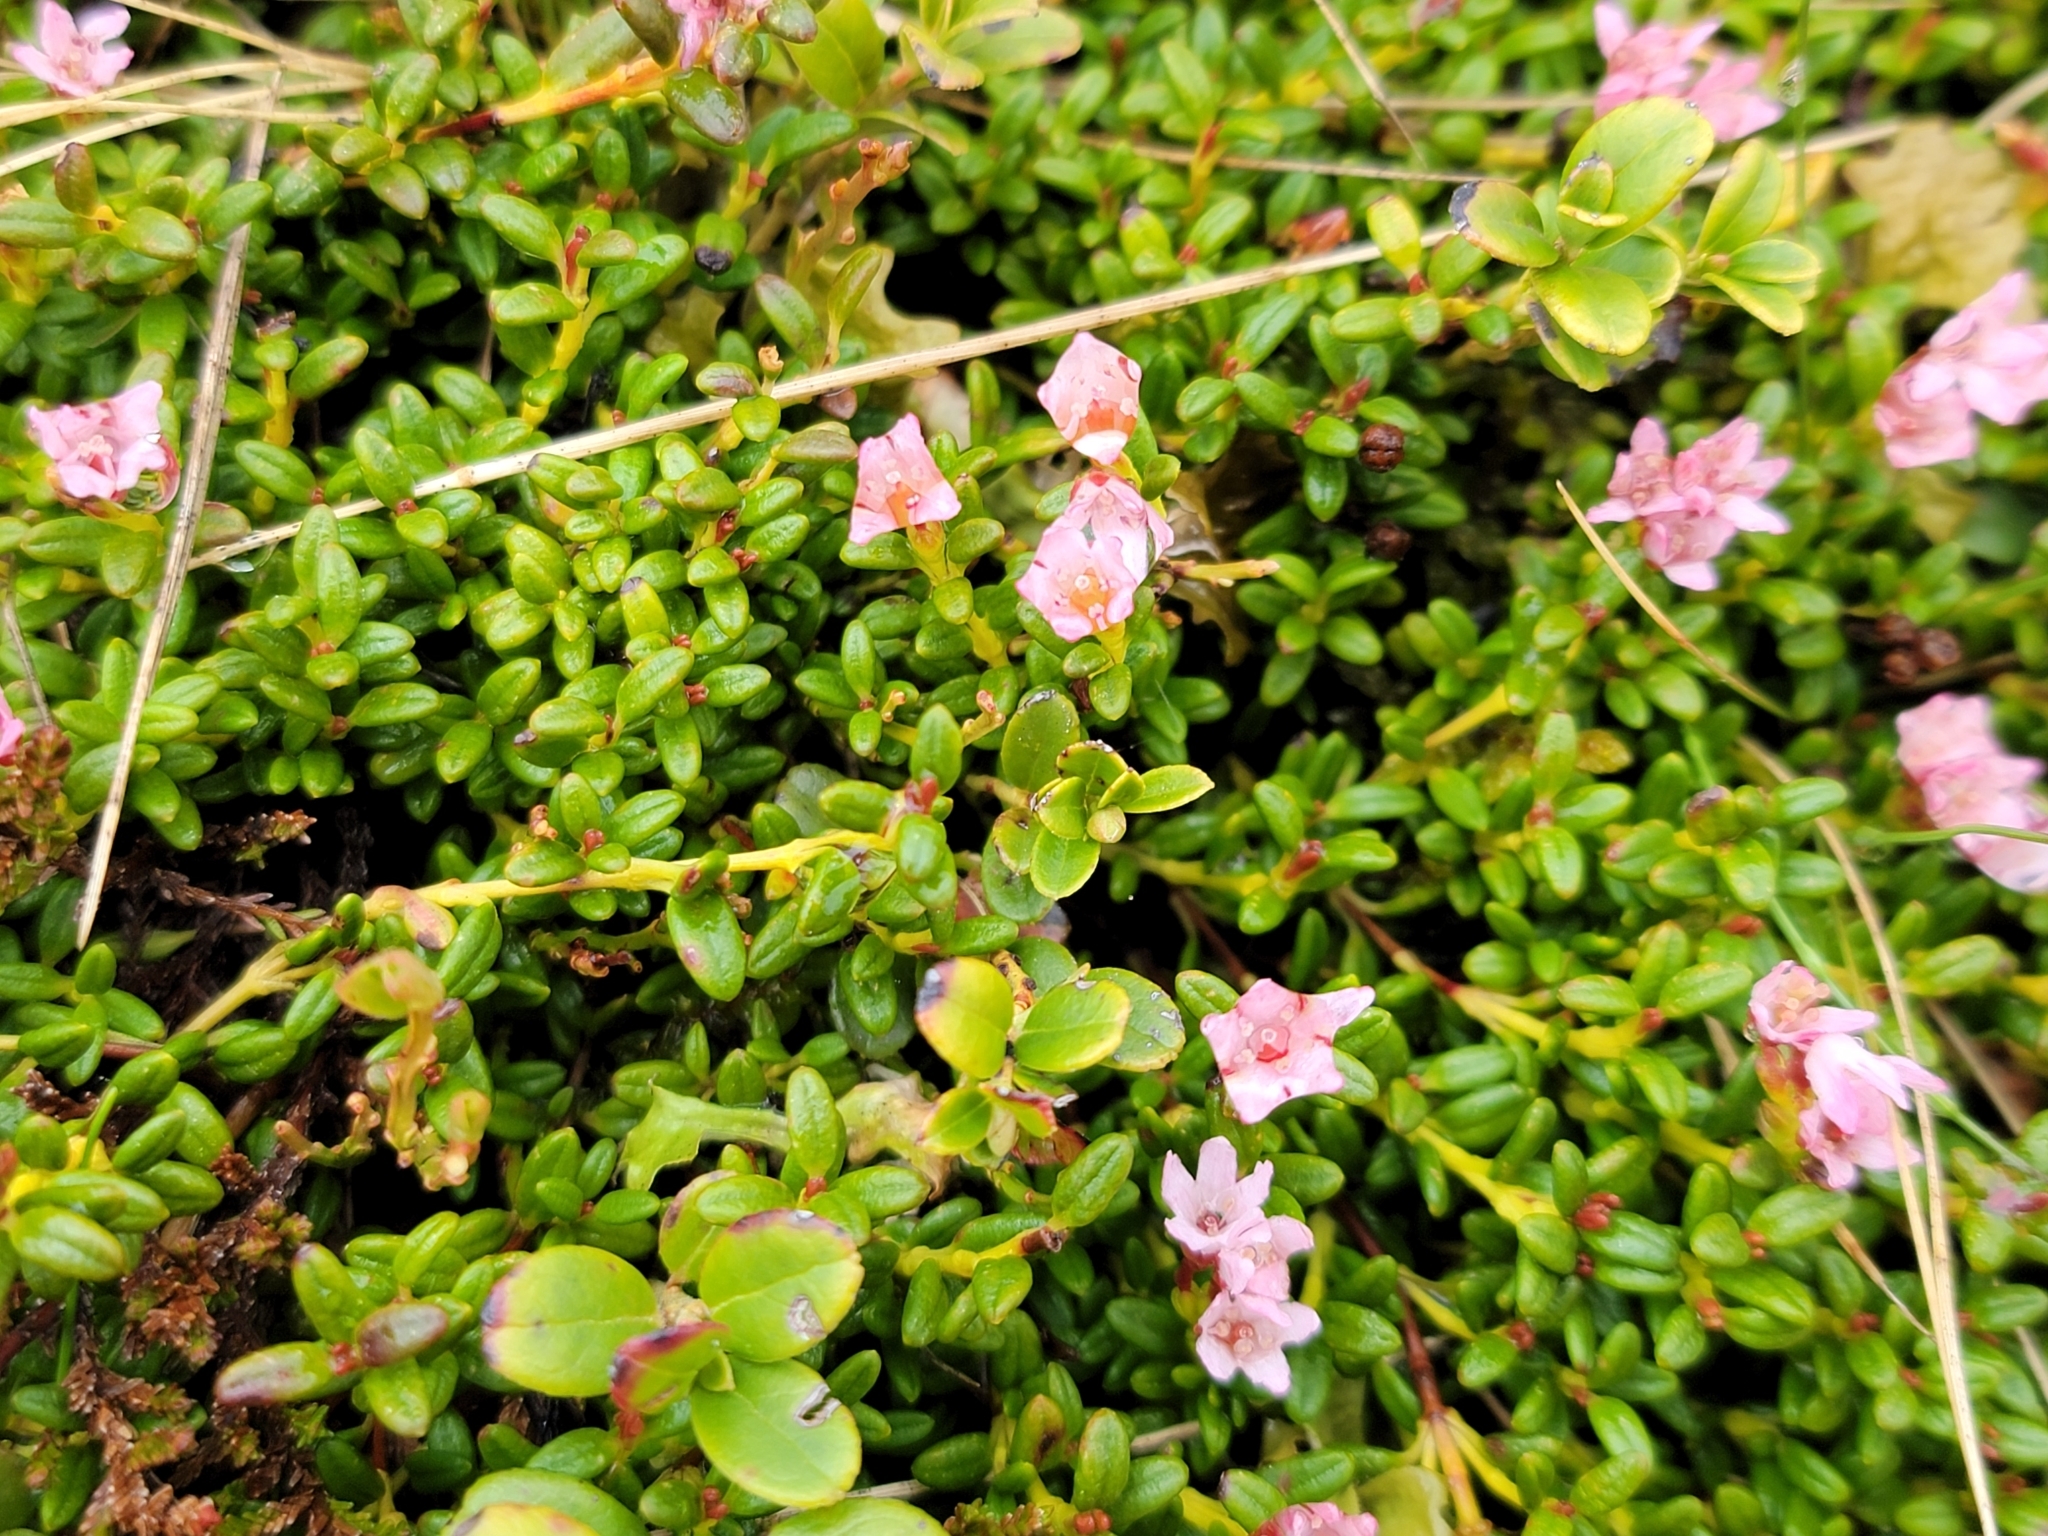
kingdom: Plantae
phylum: Tracheophyta
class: Magnoliopsida
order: Ericales
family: Ericaceae
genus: Kalmia
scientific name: Kalmia procumbens
